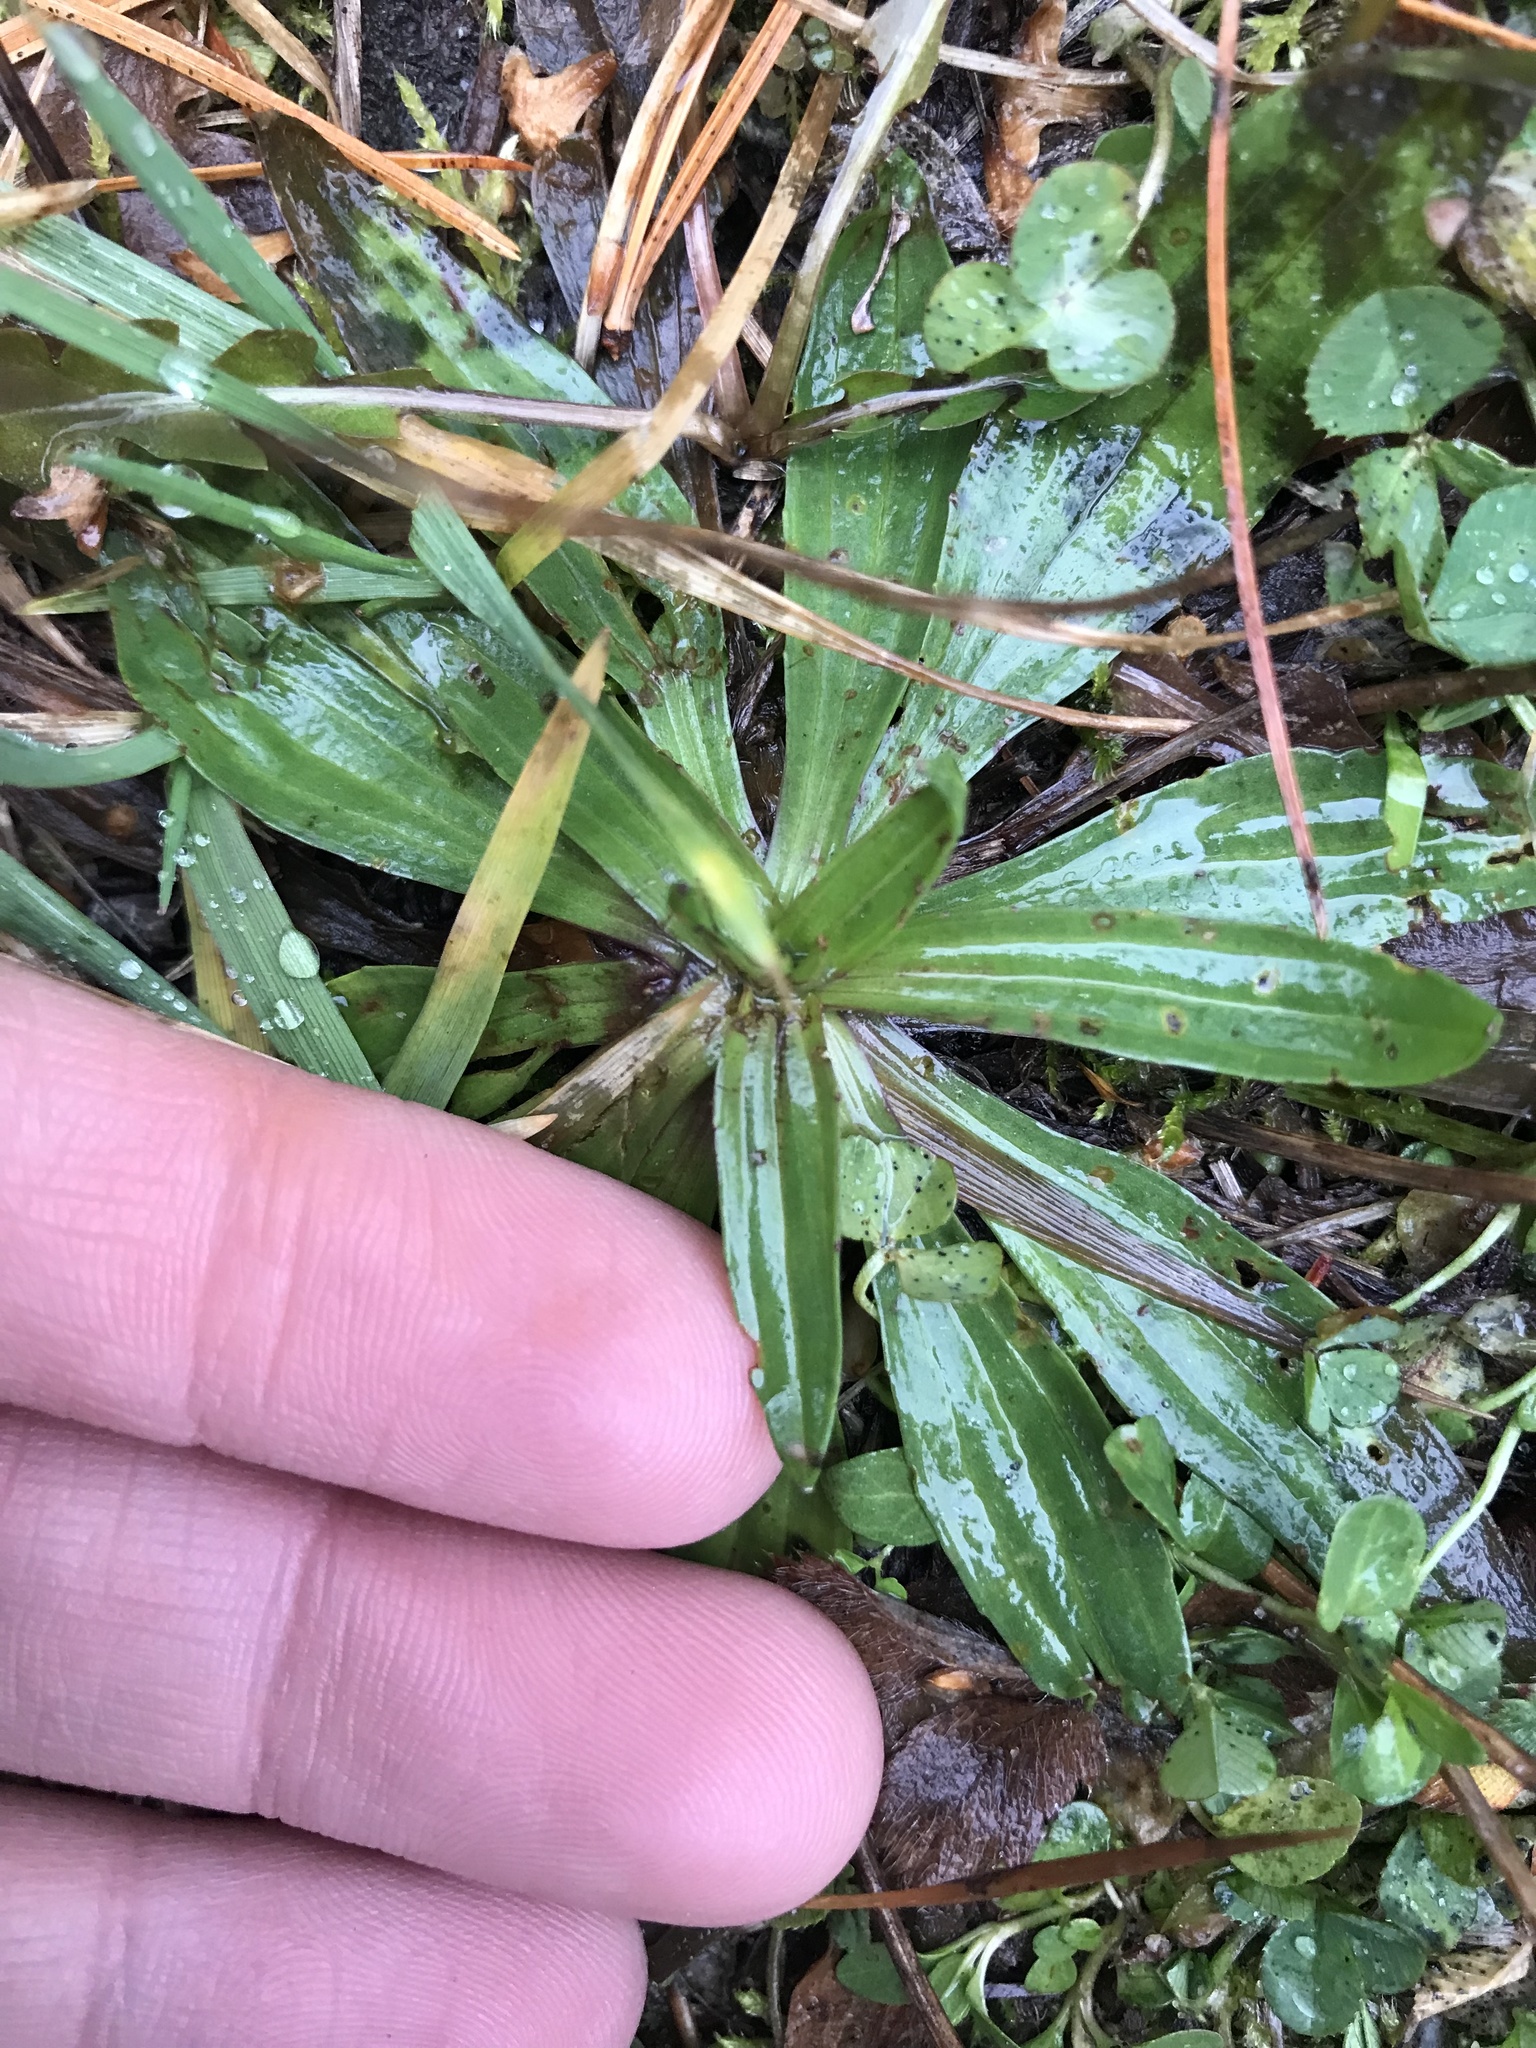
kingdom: Plantae
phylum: Tracheophyta
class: Magnoliopsida
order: Lamiales
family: Plantaginaceae
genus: Plantago
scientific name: Plantago lanceolata
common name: Ribwort plantain
